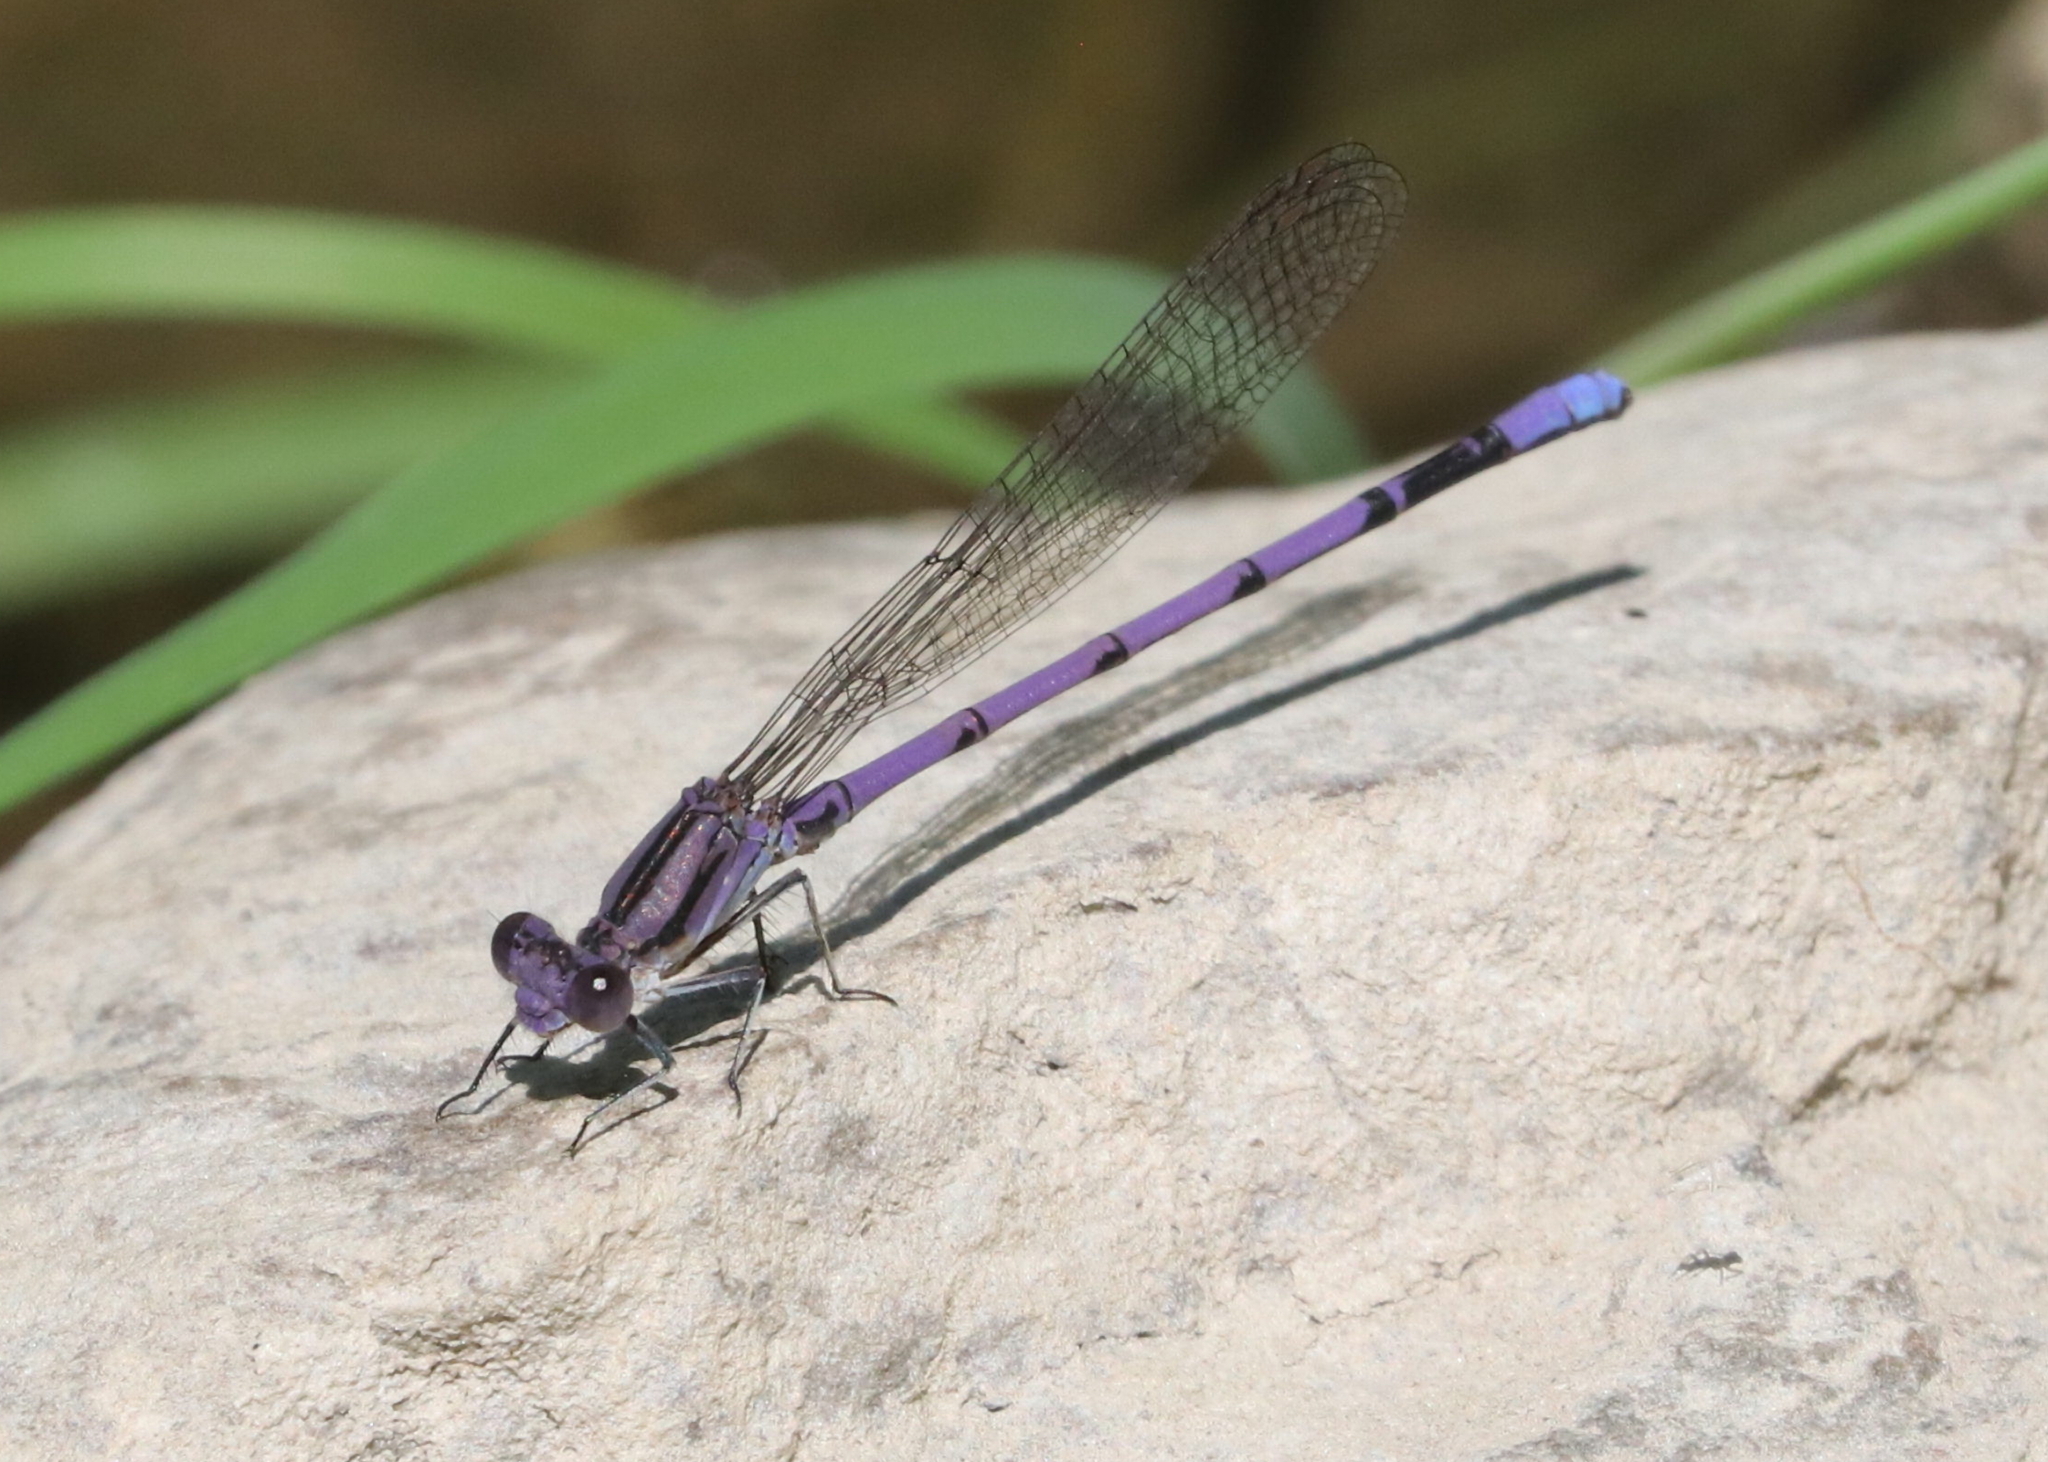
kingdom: Animalia
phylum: Arthropoda
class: Insecta
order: Odonata
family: Coenagrionidae
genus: Argia
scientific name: Argia fumipennis
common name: Variable dancer
